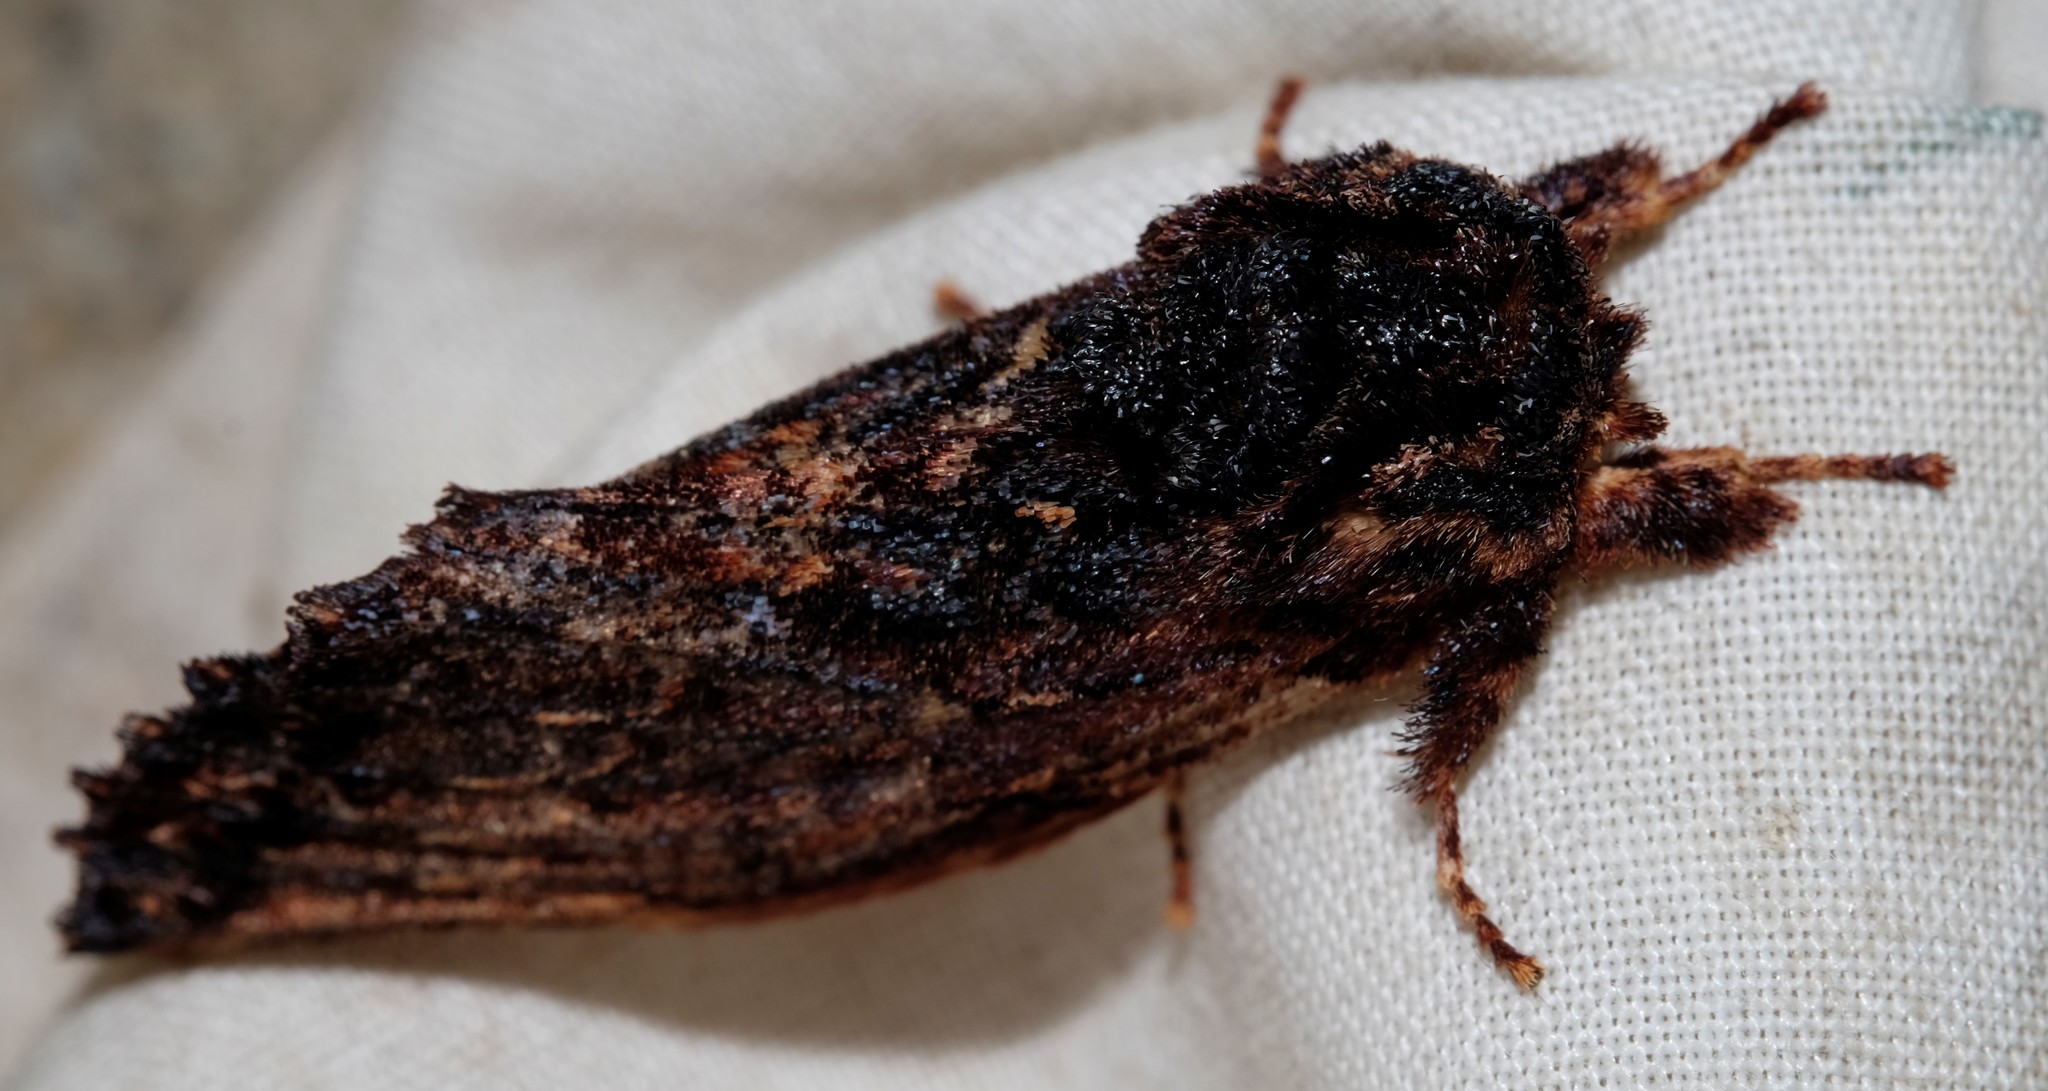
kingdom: Animalia
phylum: Arthropoda
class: Insecta
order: Lepidoptera
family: Notodontidae
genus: Sorama
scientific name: Sorama bicolor
